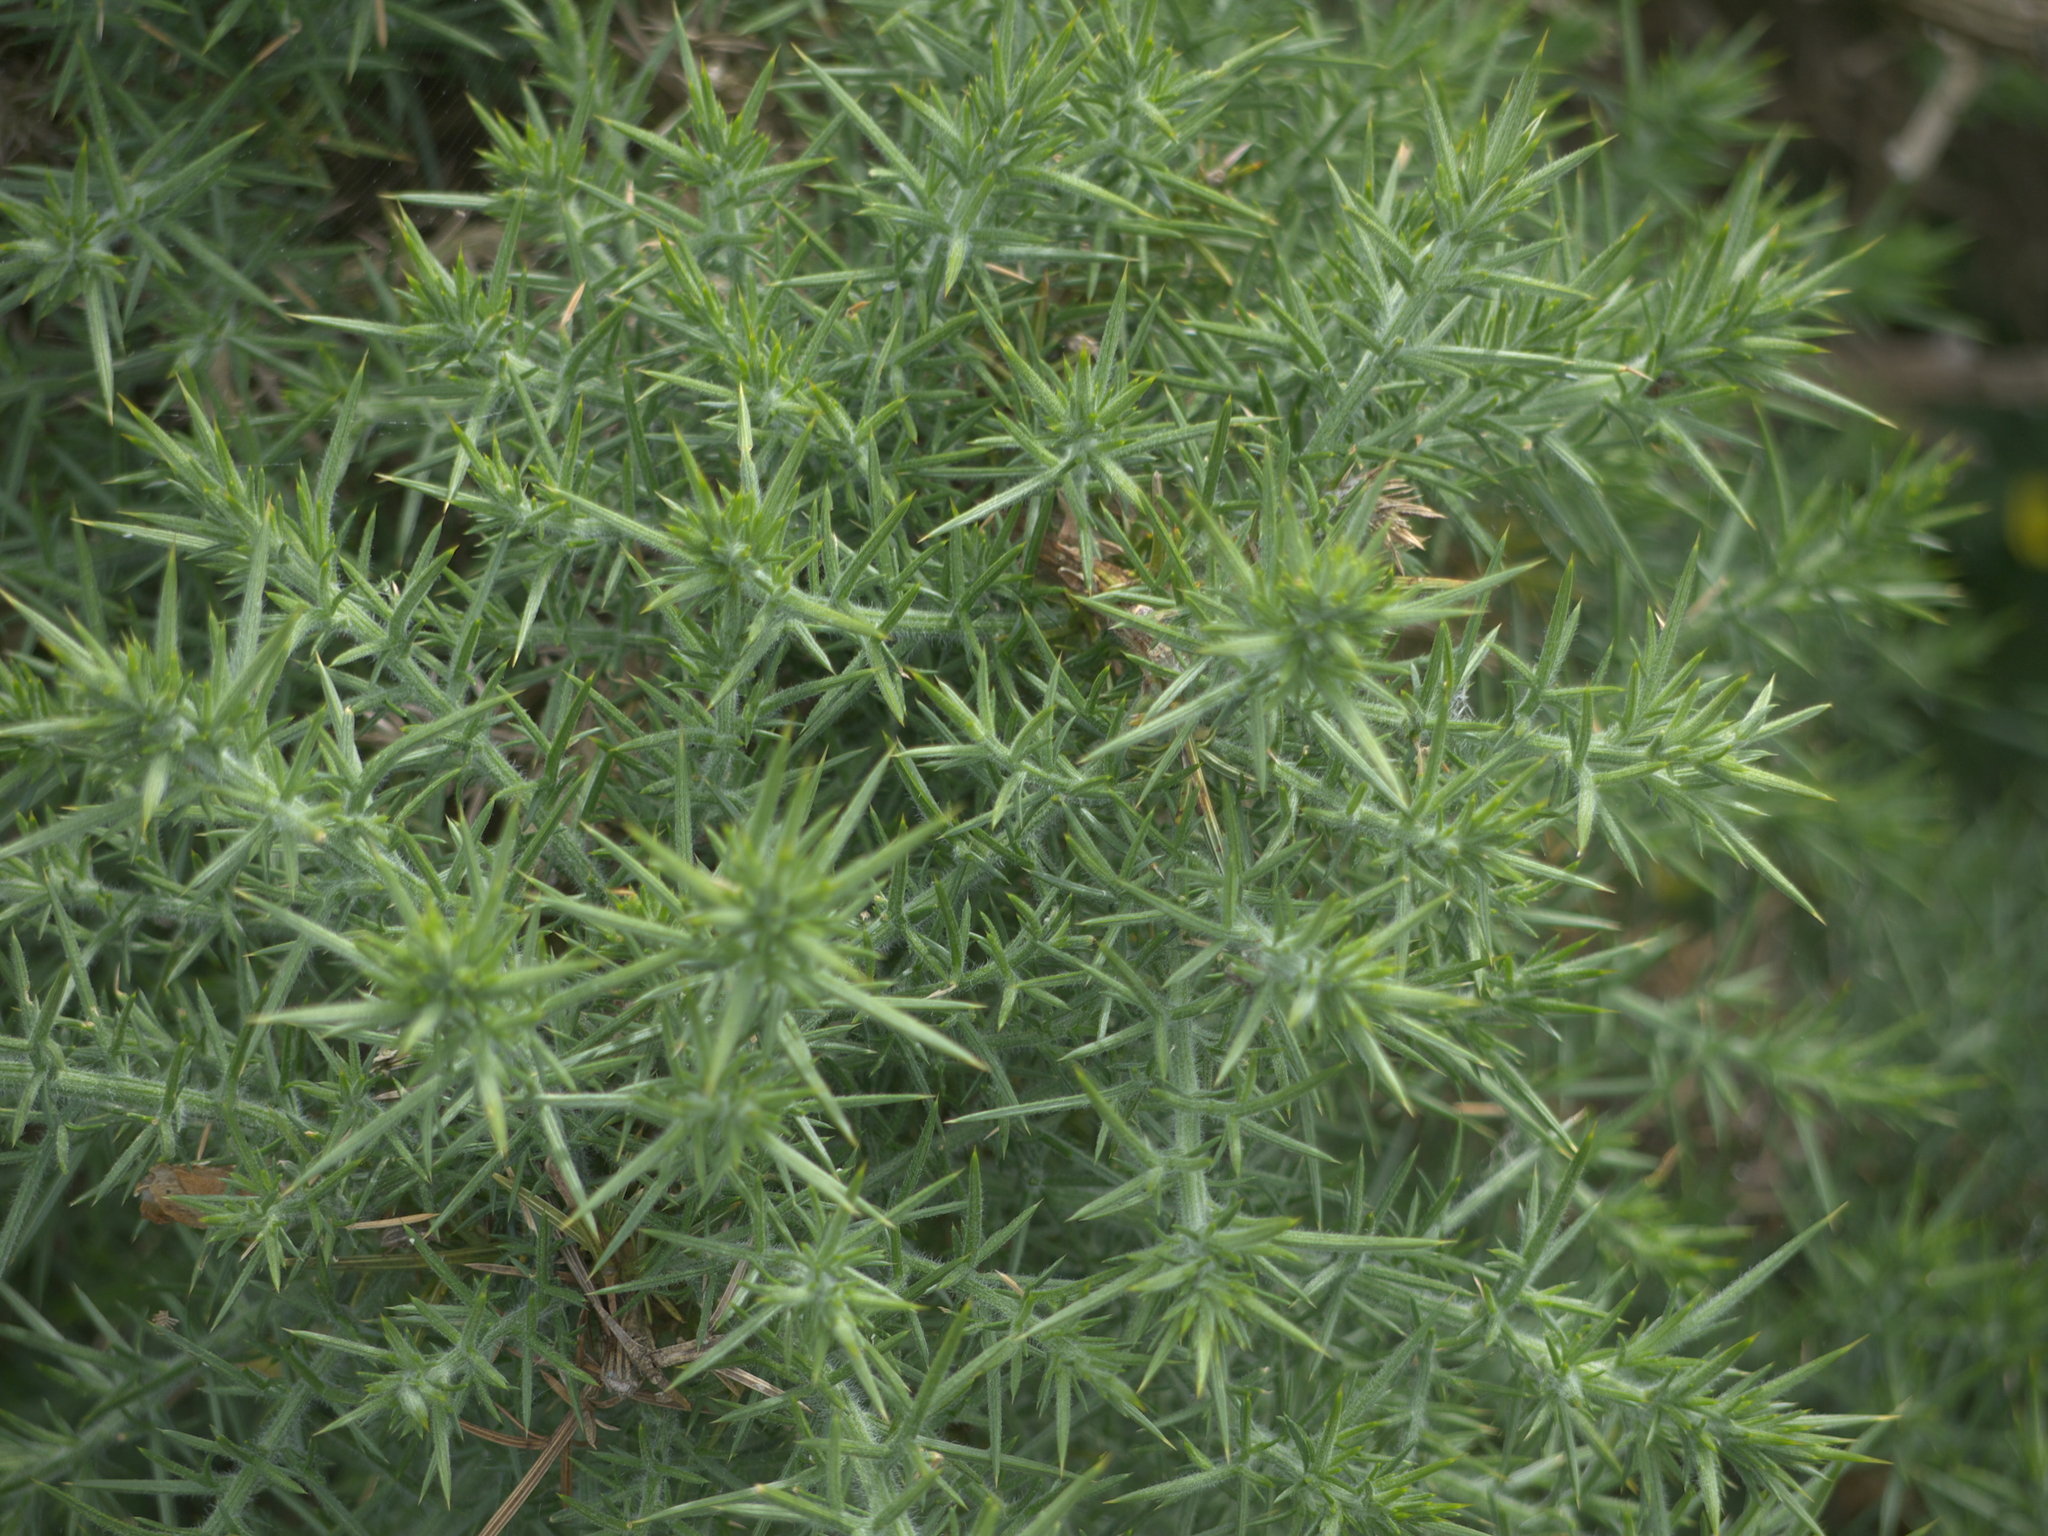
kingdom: Plantae
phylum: Tracheophyta
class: Magnoliopsida
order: Fabales
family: Fabaceae
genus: Ulex
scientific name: Ulex europaeus
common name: Common gorse
